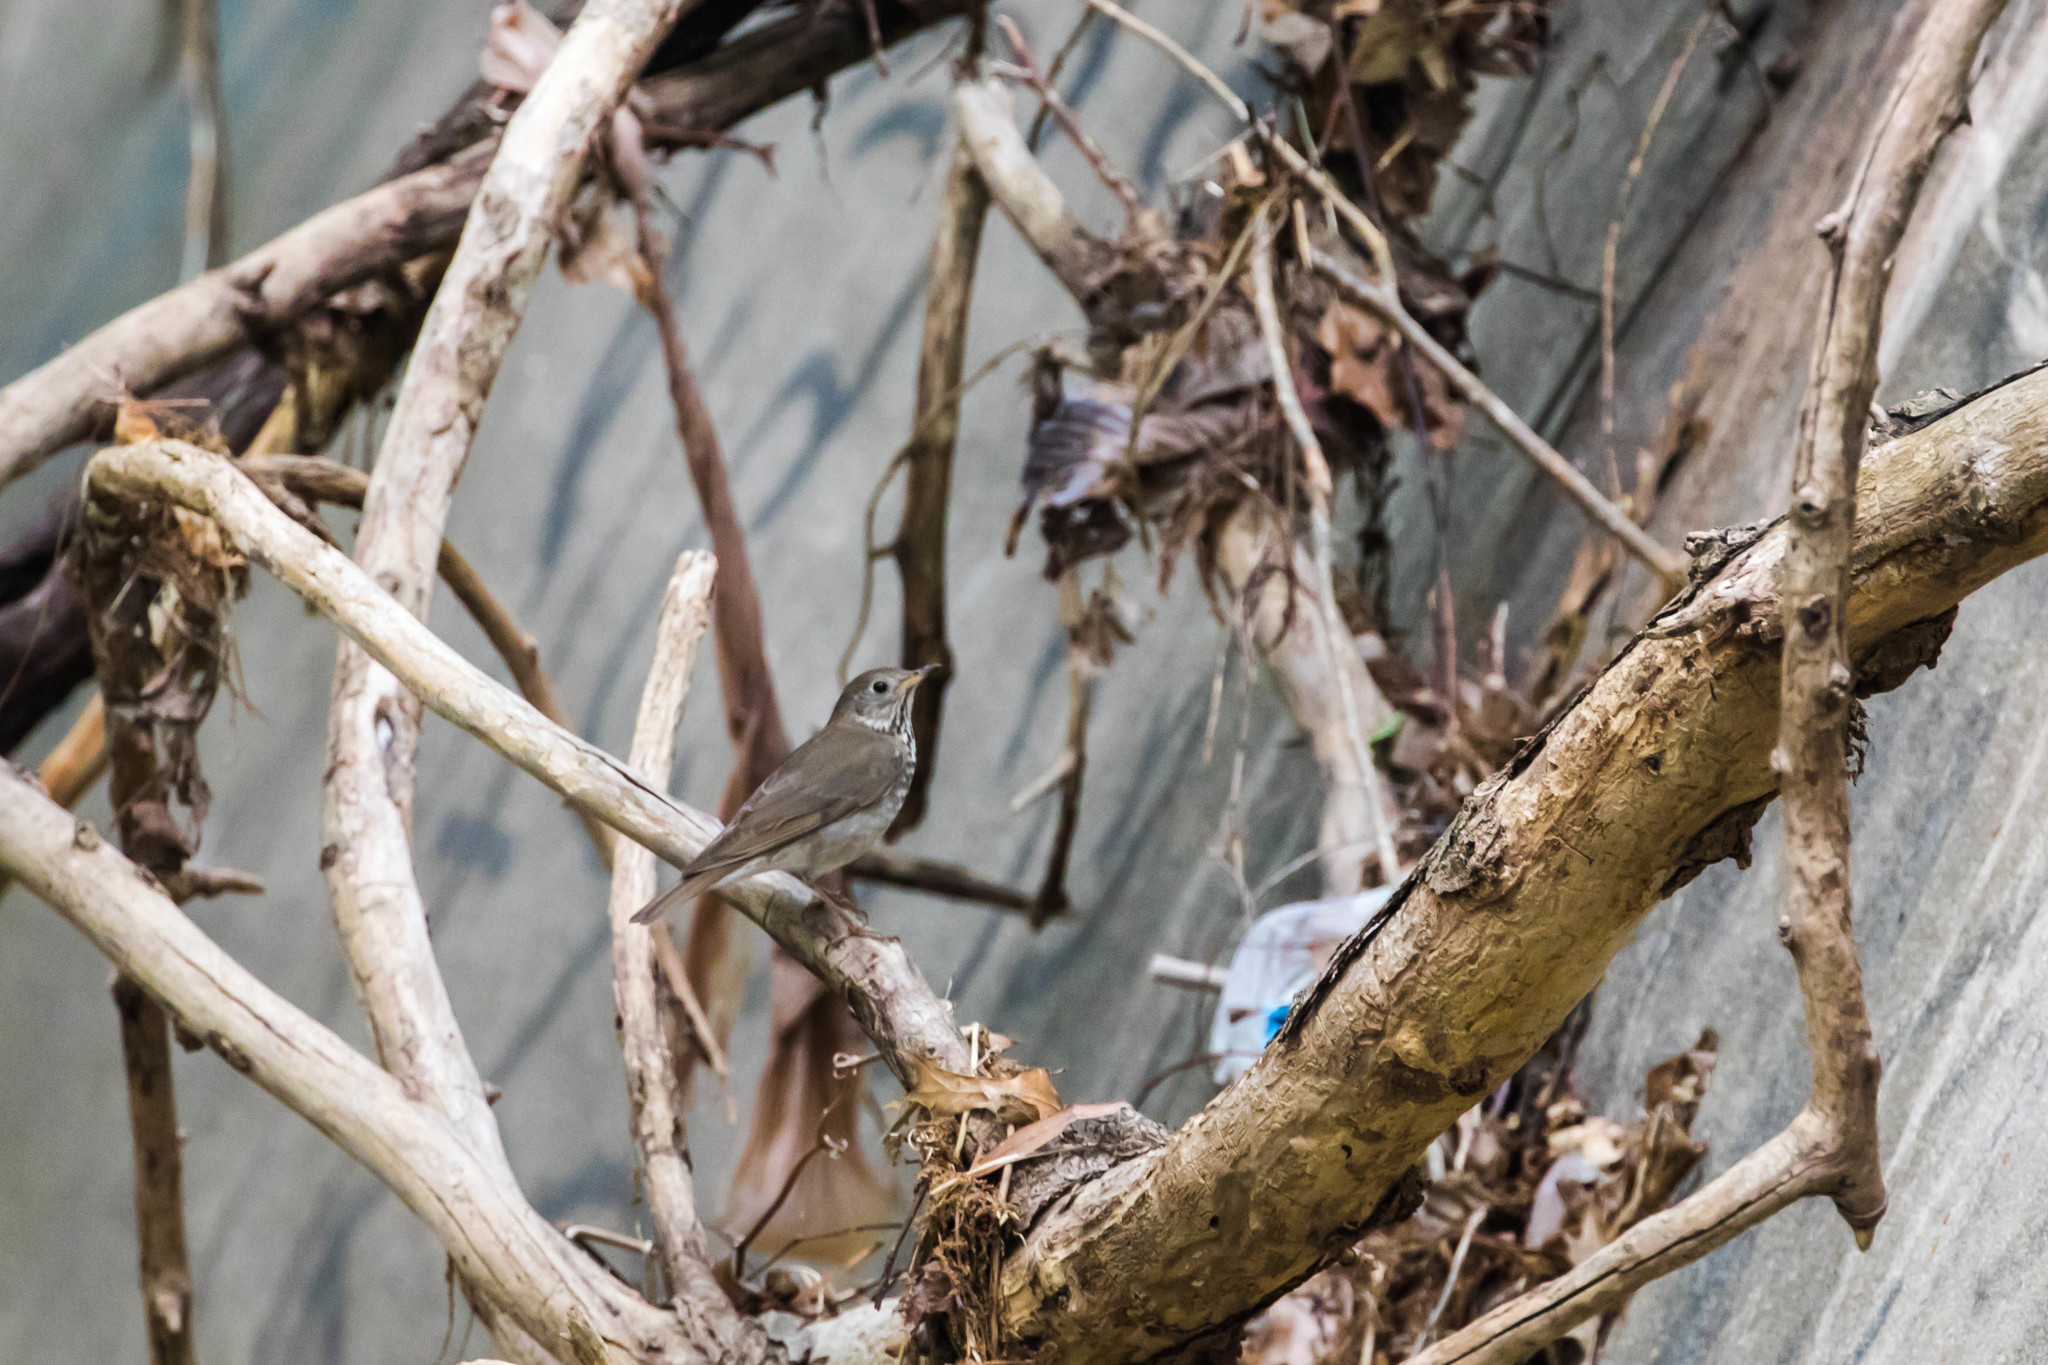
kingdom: Animalia
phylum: Chordata
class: Aves
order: Passeriformes
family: Turdidae
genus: Catharus
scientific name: Catharus minimus
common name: Grey-cheeked thrush
